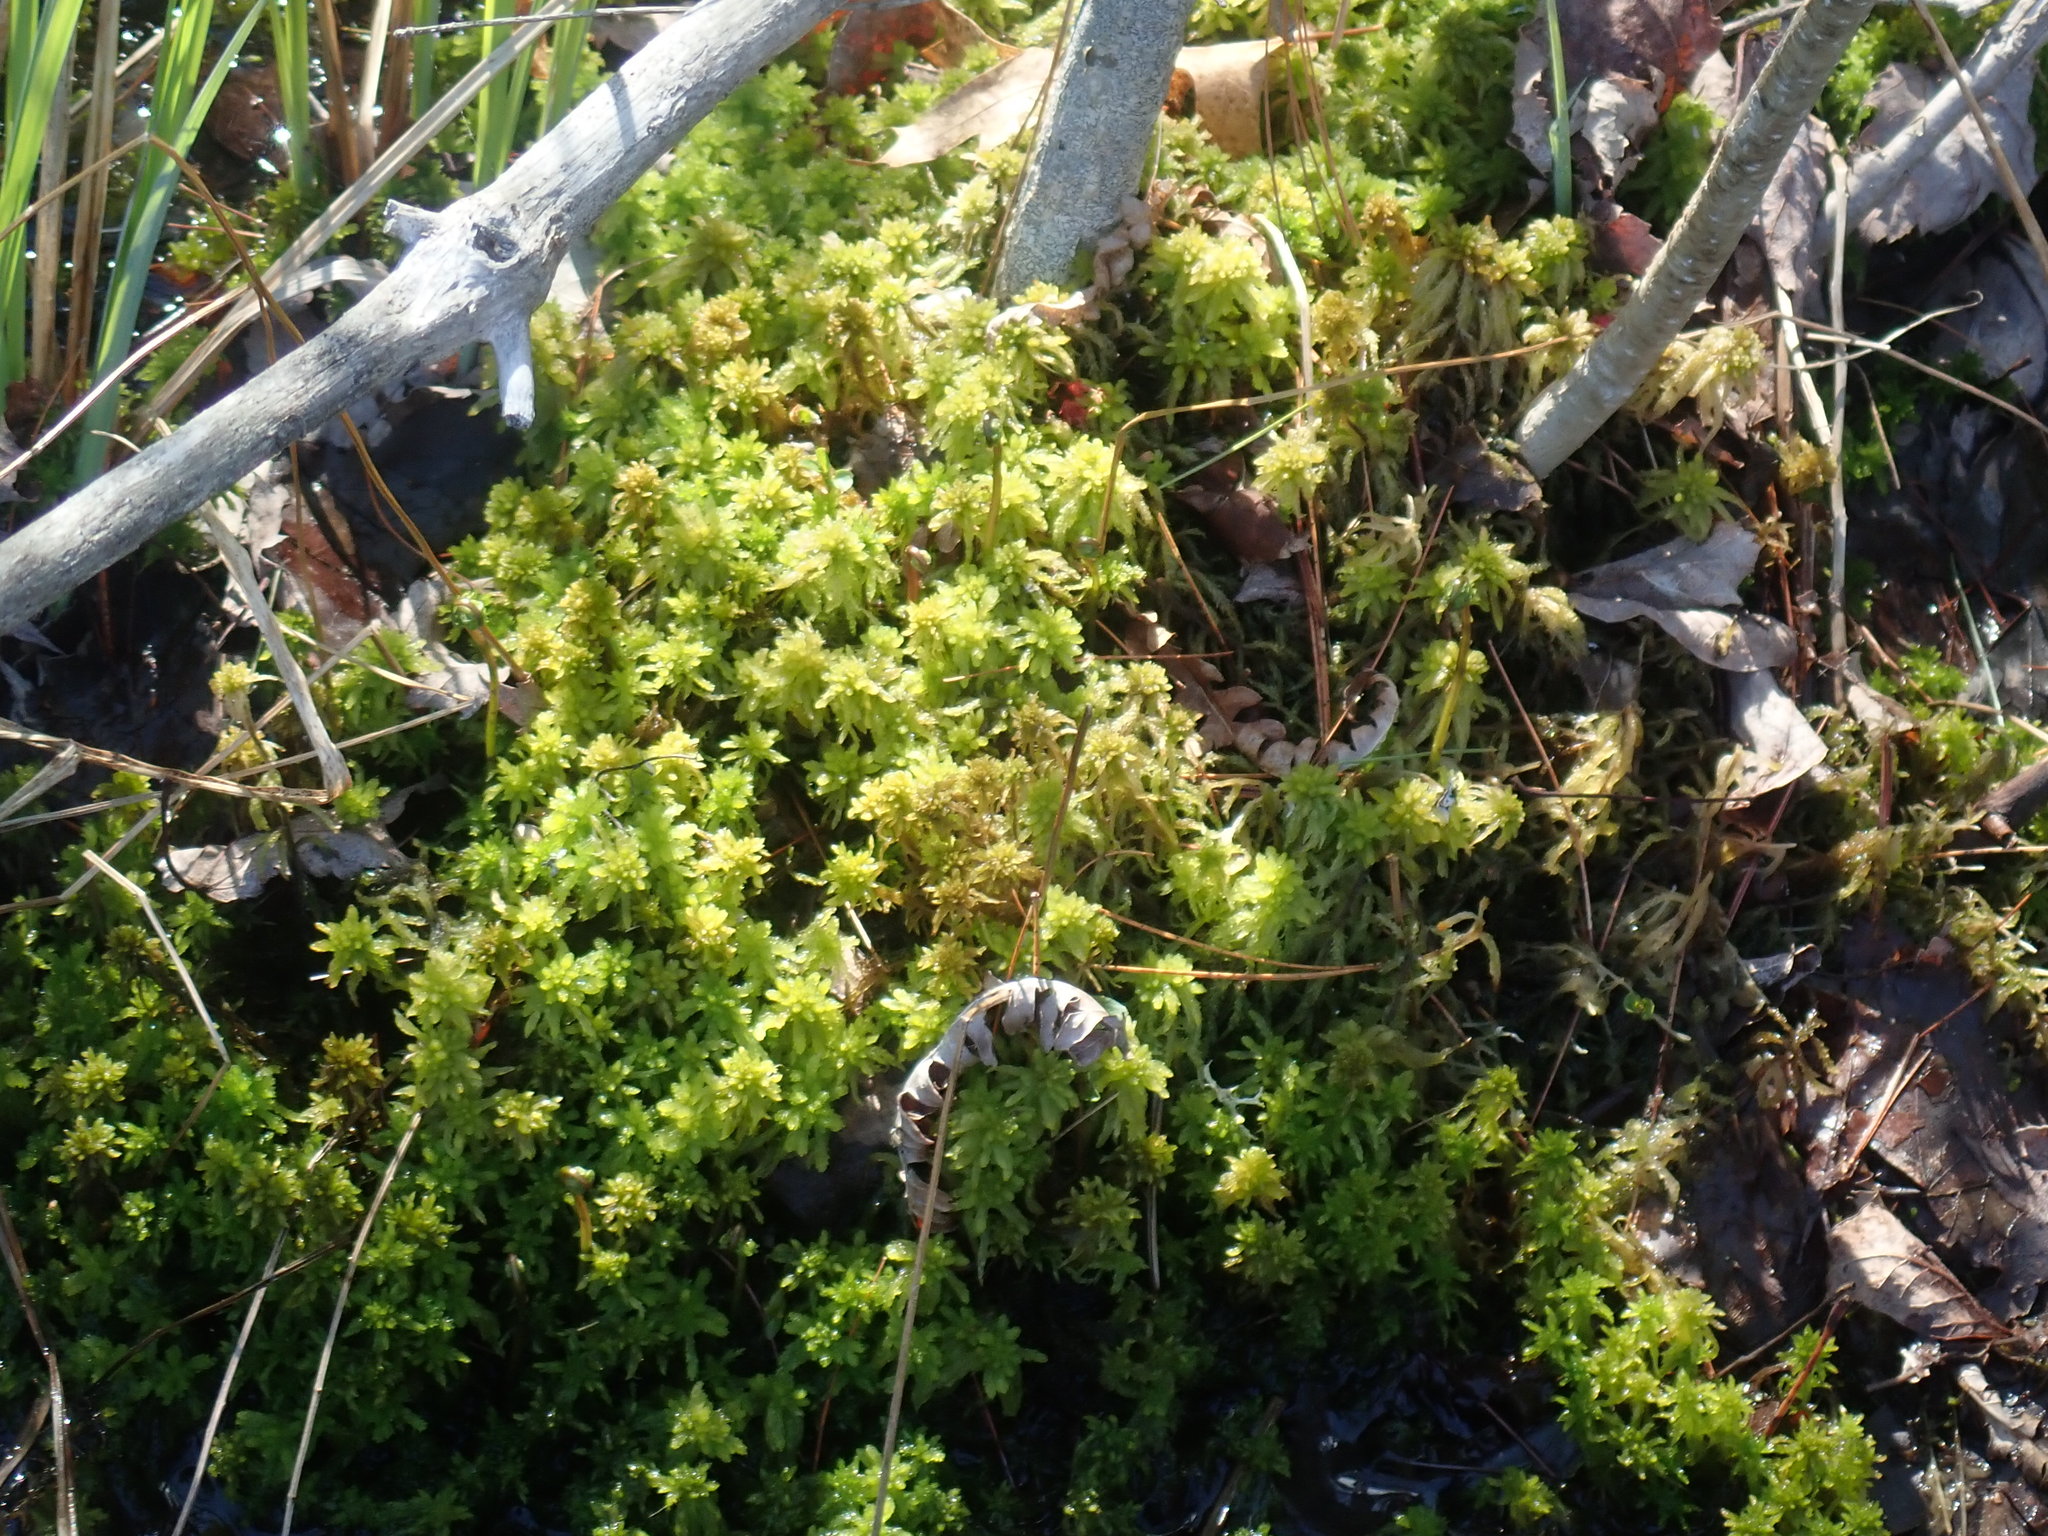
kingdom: Plantae
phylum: Bryophyta
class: Sphagnopsida
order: Sphagnales
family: Sphagnaceae
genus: Sphagnum
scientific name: Sphagnum
